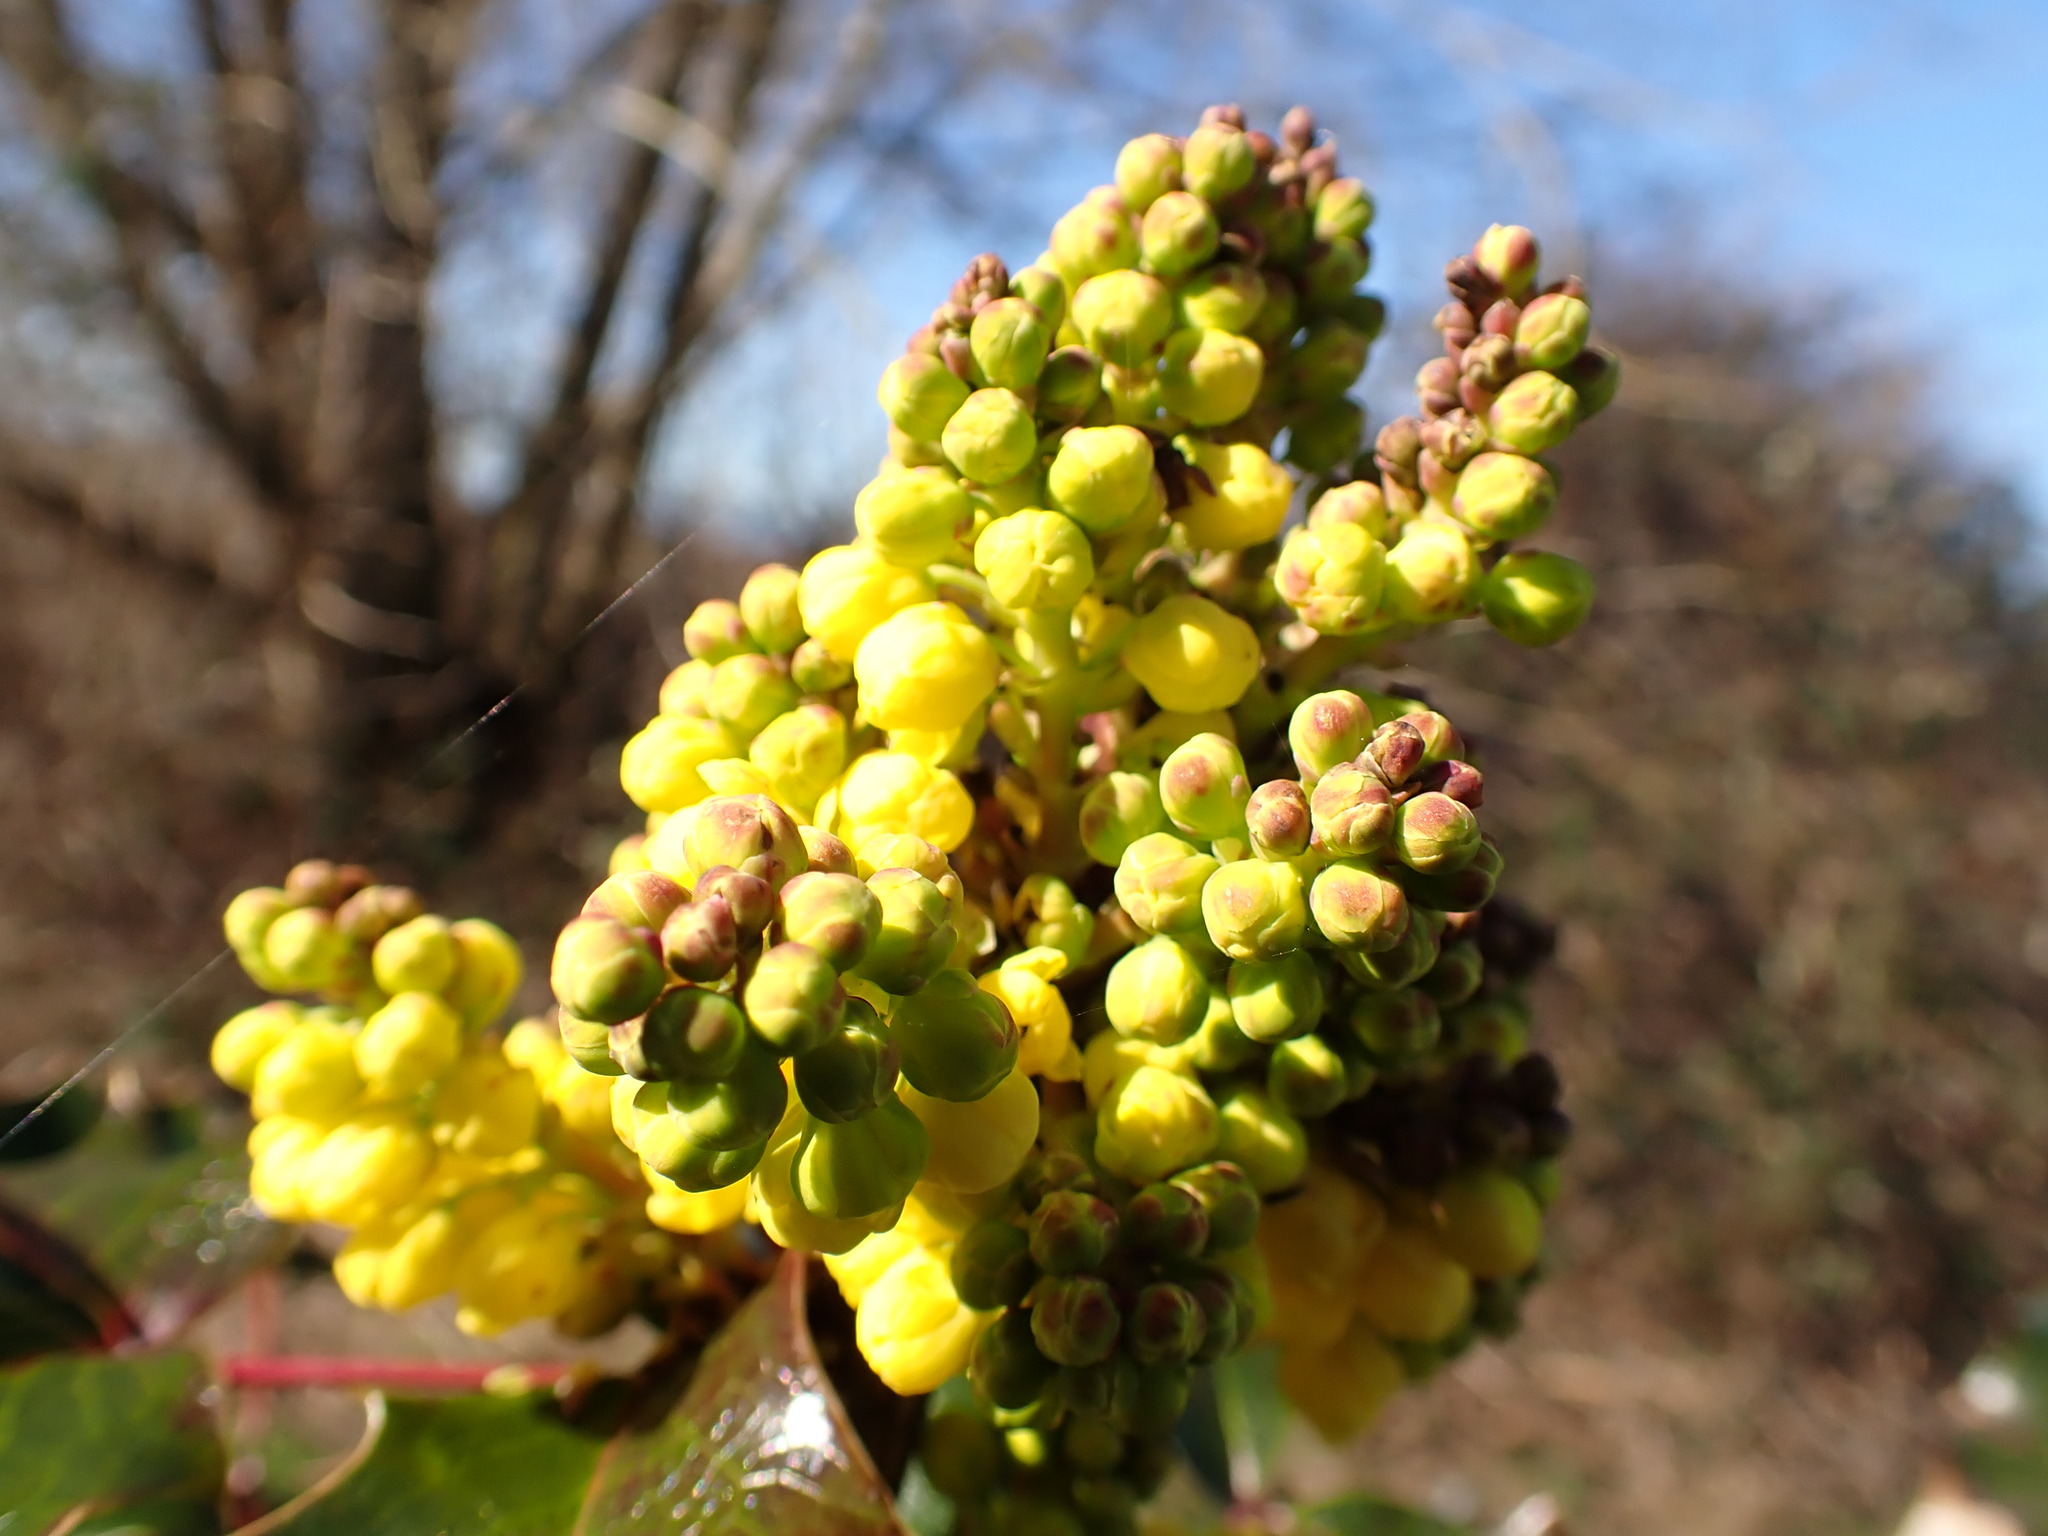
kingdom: Plantae
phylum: Tracheophyta
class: Magnoliopsida
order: Ranunculales
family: Berberidaceae
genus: Mahonia
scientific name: Mahonia aquifolium
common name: Oregon-grape
